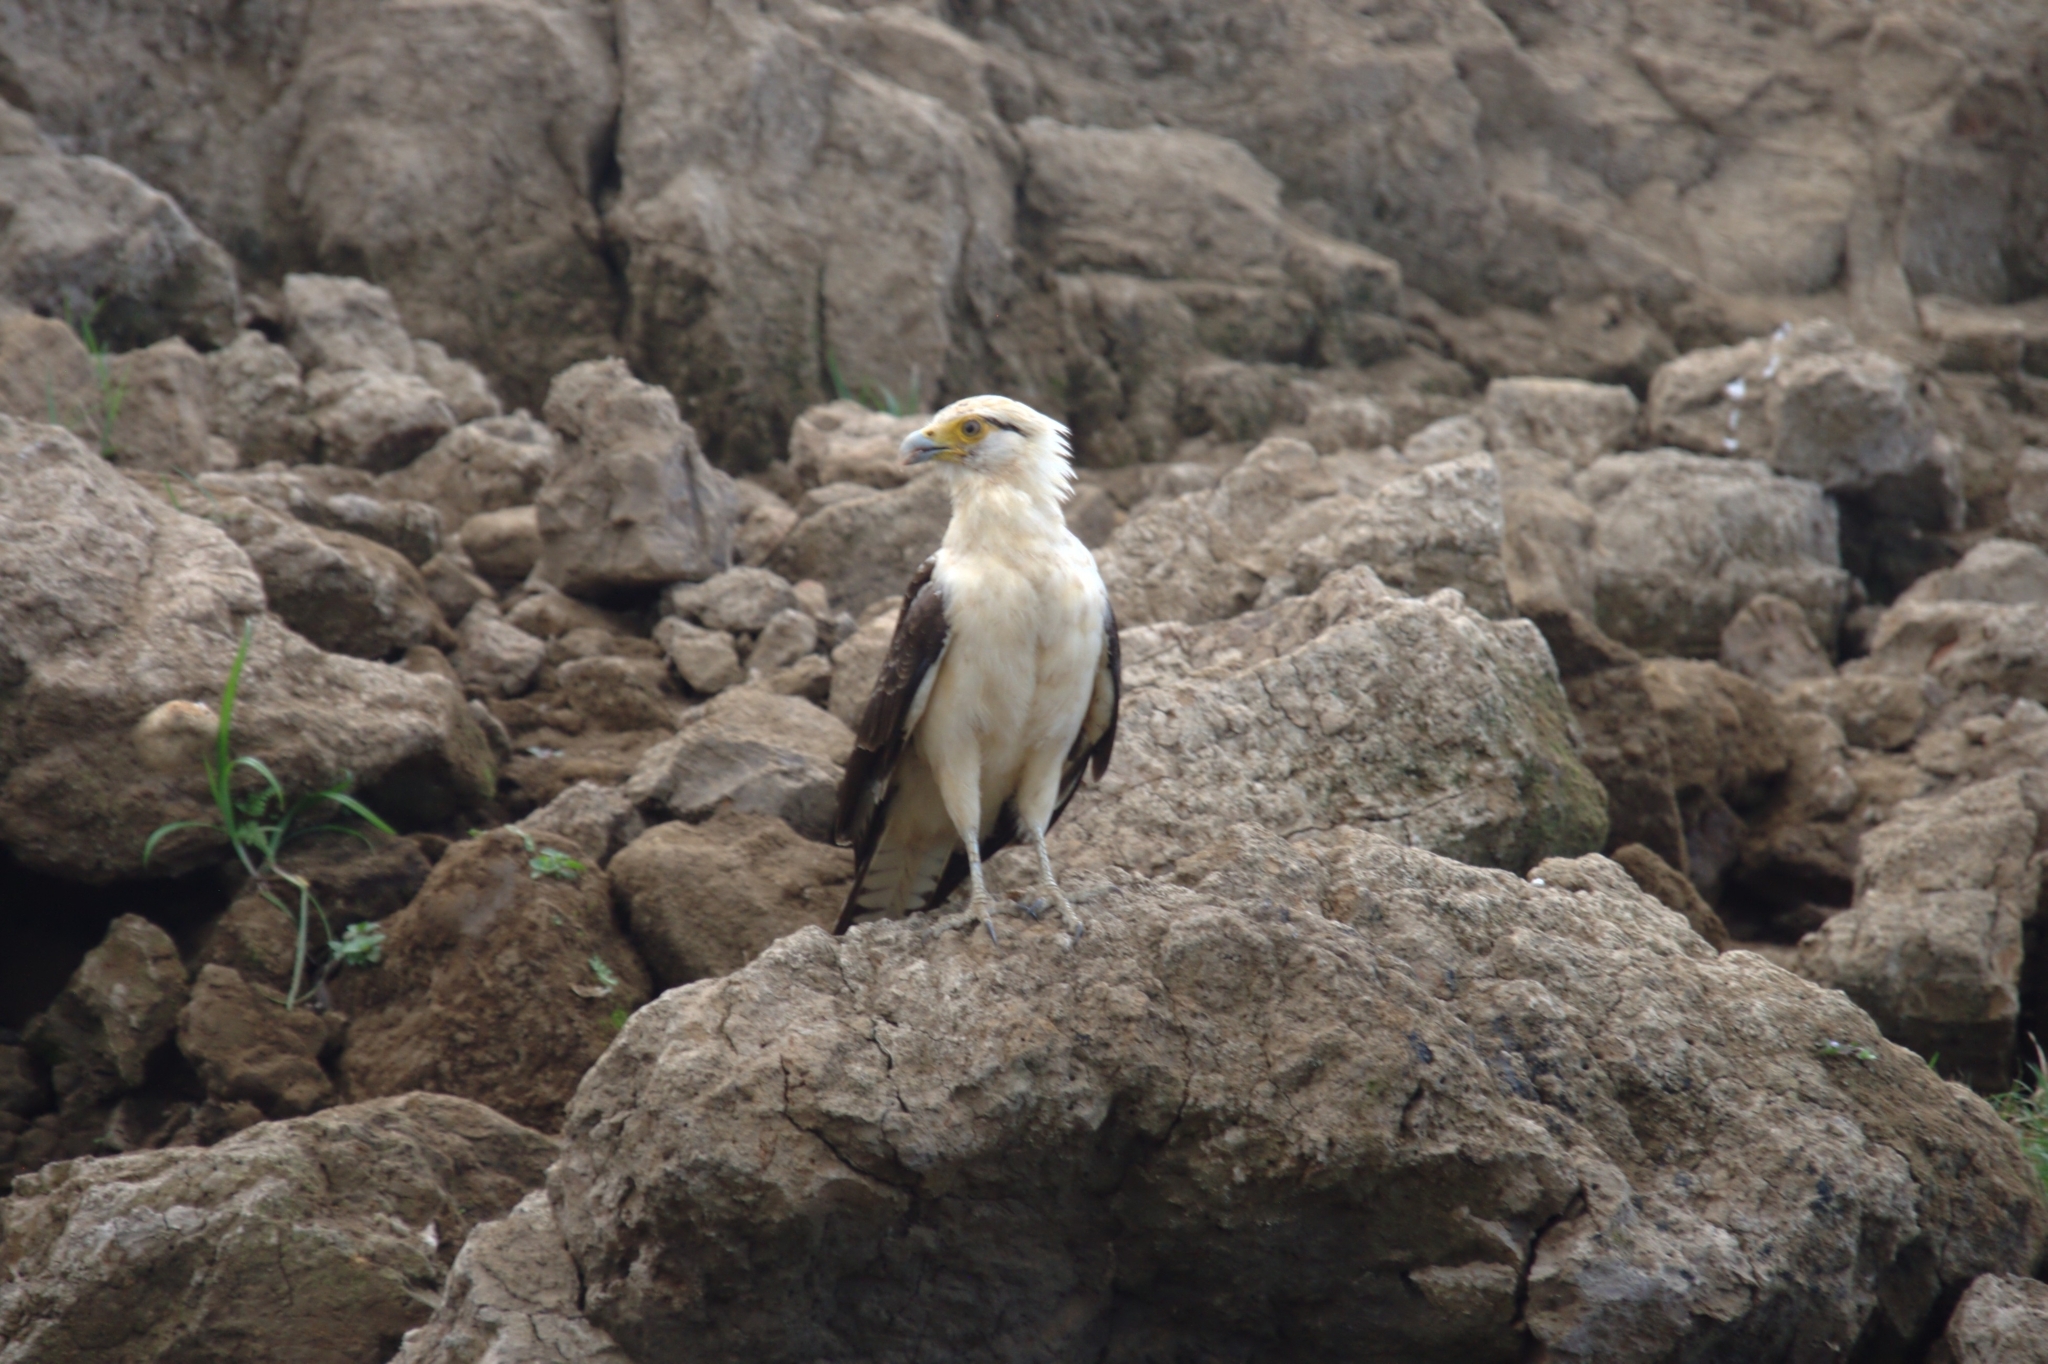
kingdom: Animalia
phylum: Chordata
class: Aves
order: Falconiformes
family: Falconidae
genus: Daptrius
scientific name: Daptrius
